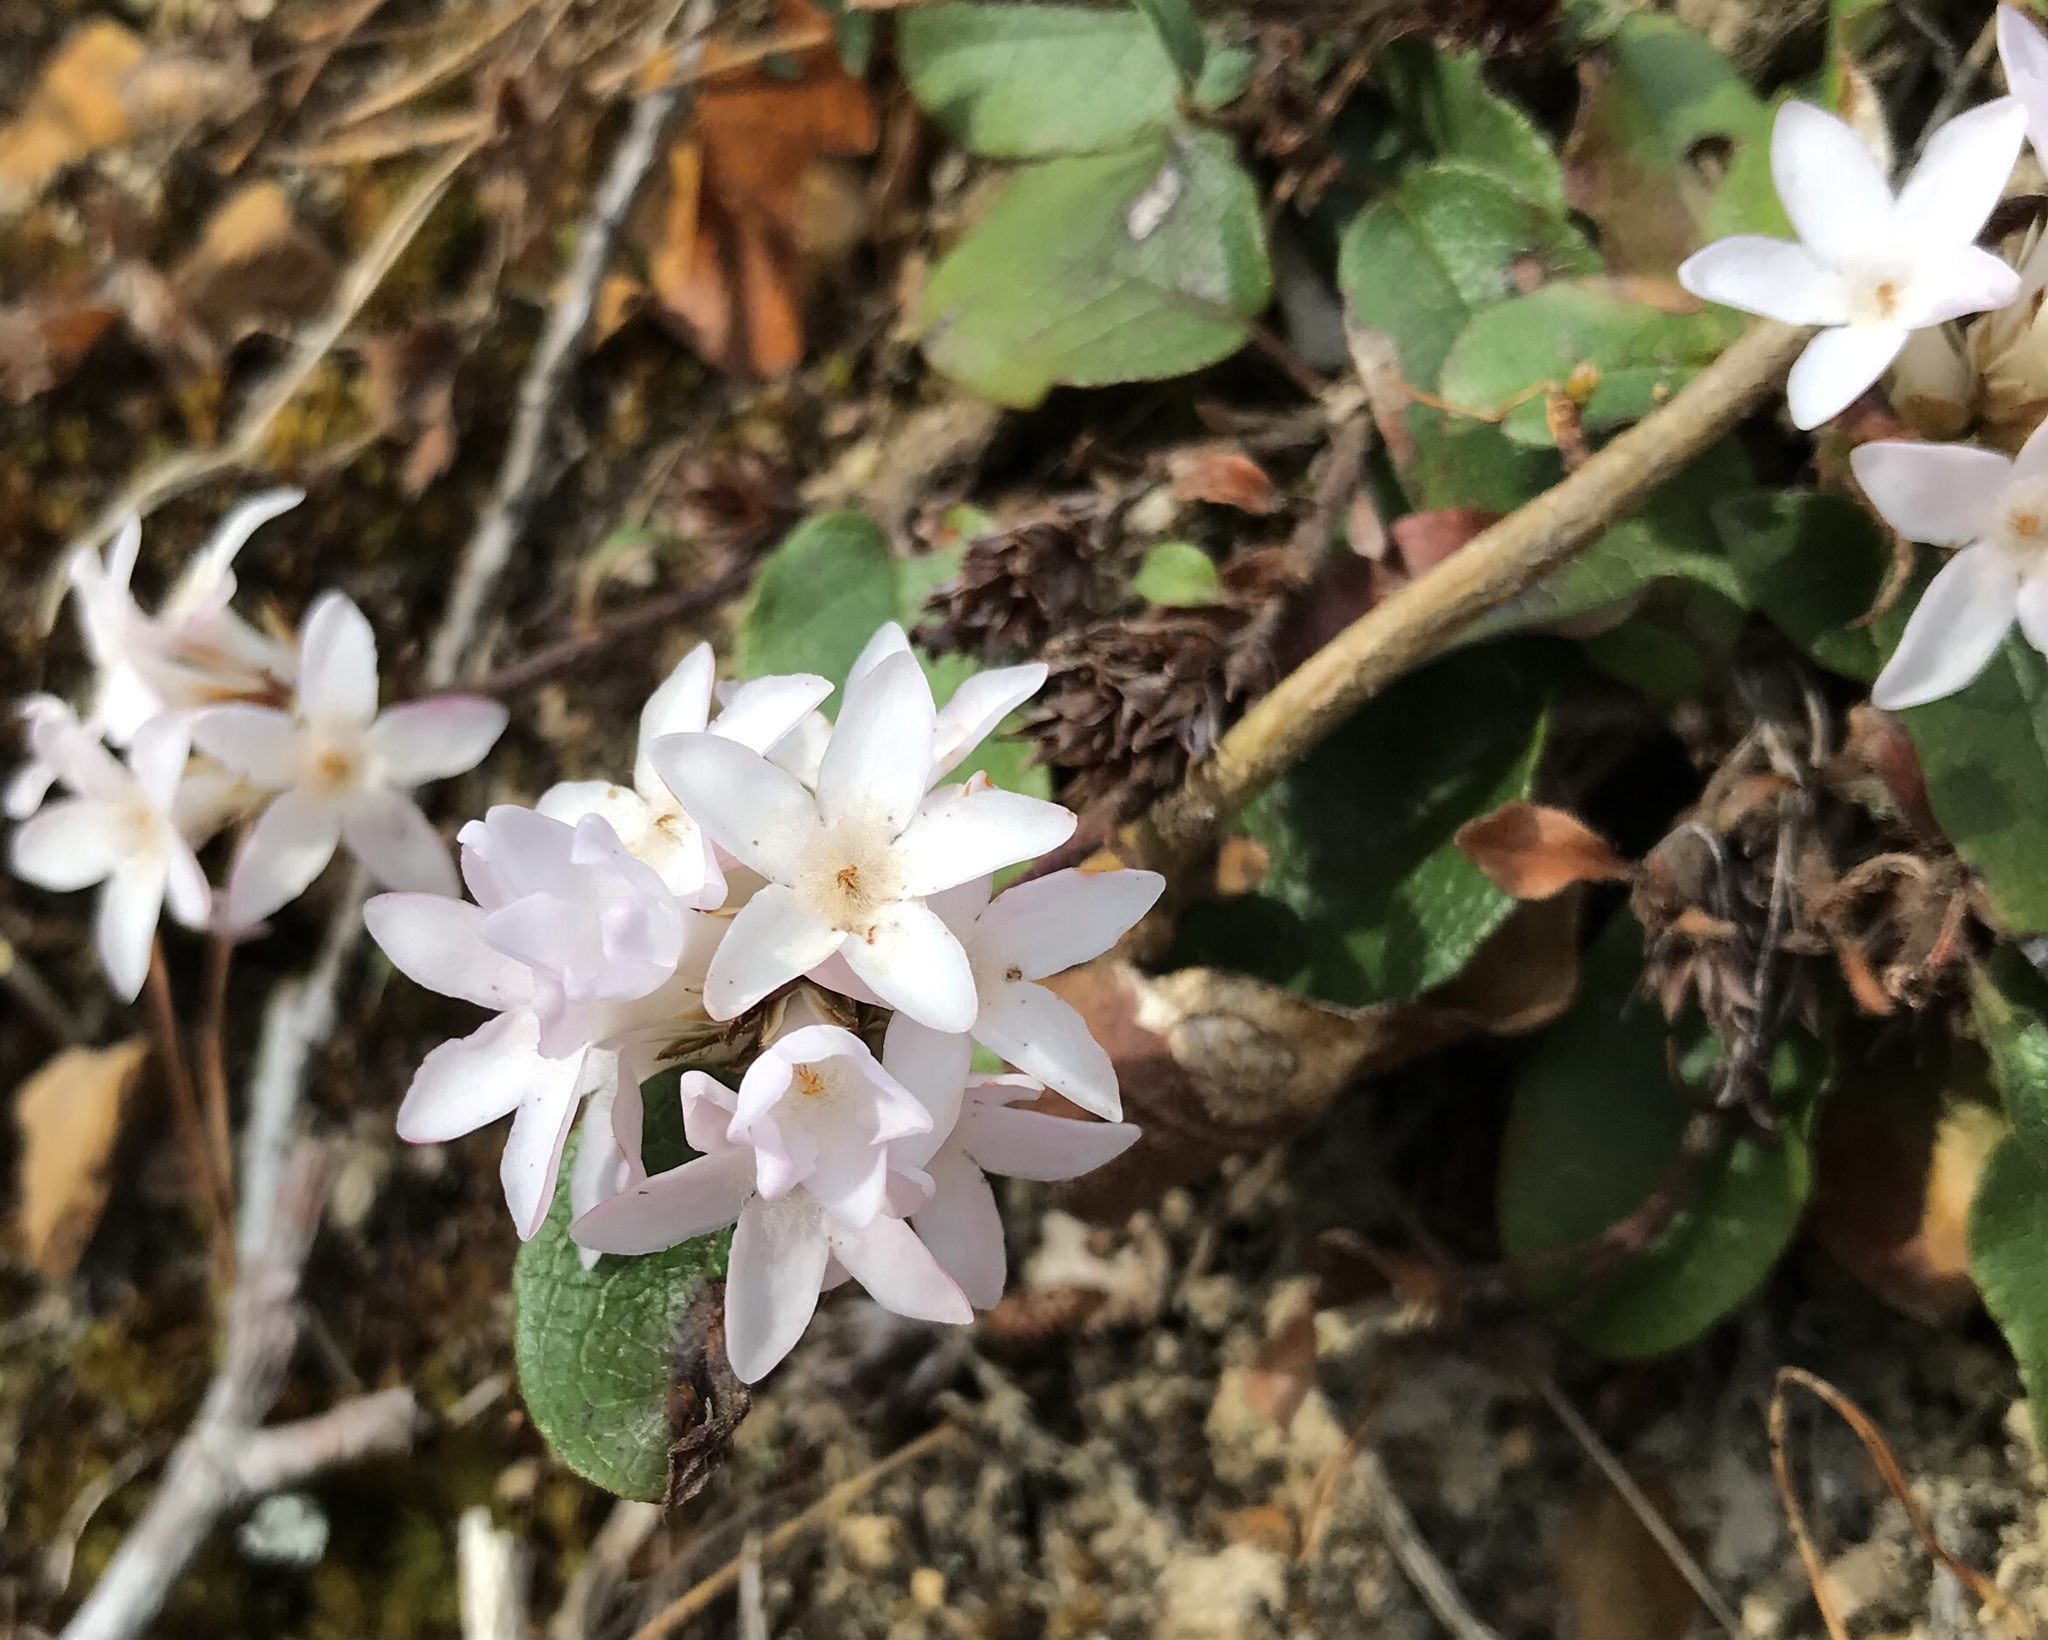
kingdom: Plantae
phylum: Tracheophyta
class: Magnoliopsida
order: Ericales
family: Ericaceae
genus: Epigaea
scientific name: Epigaea repens
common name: Gravelroot
